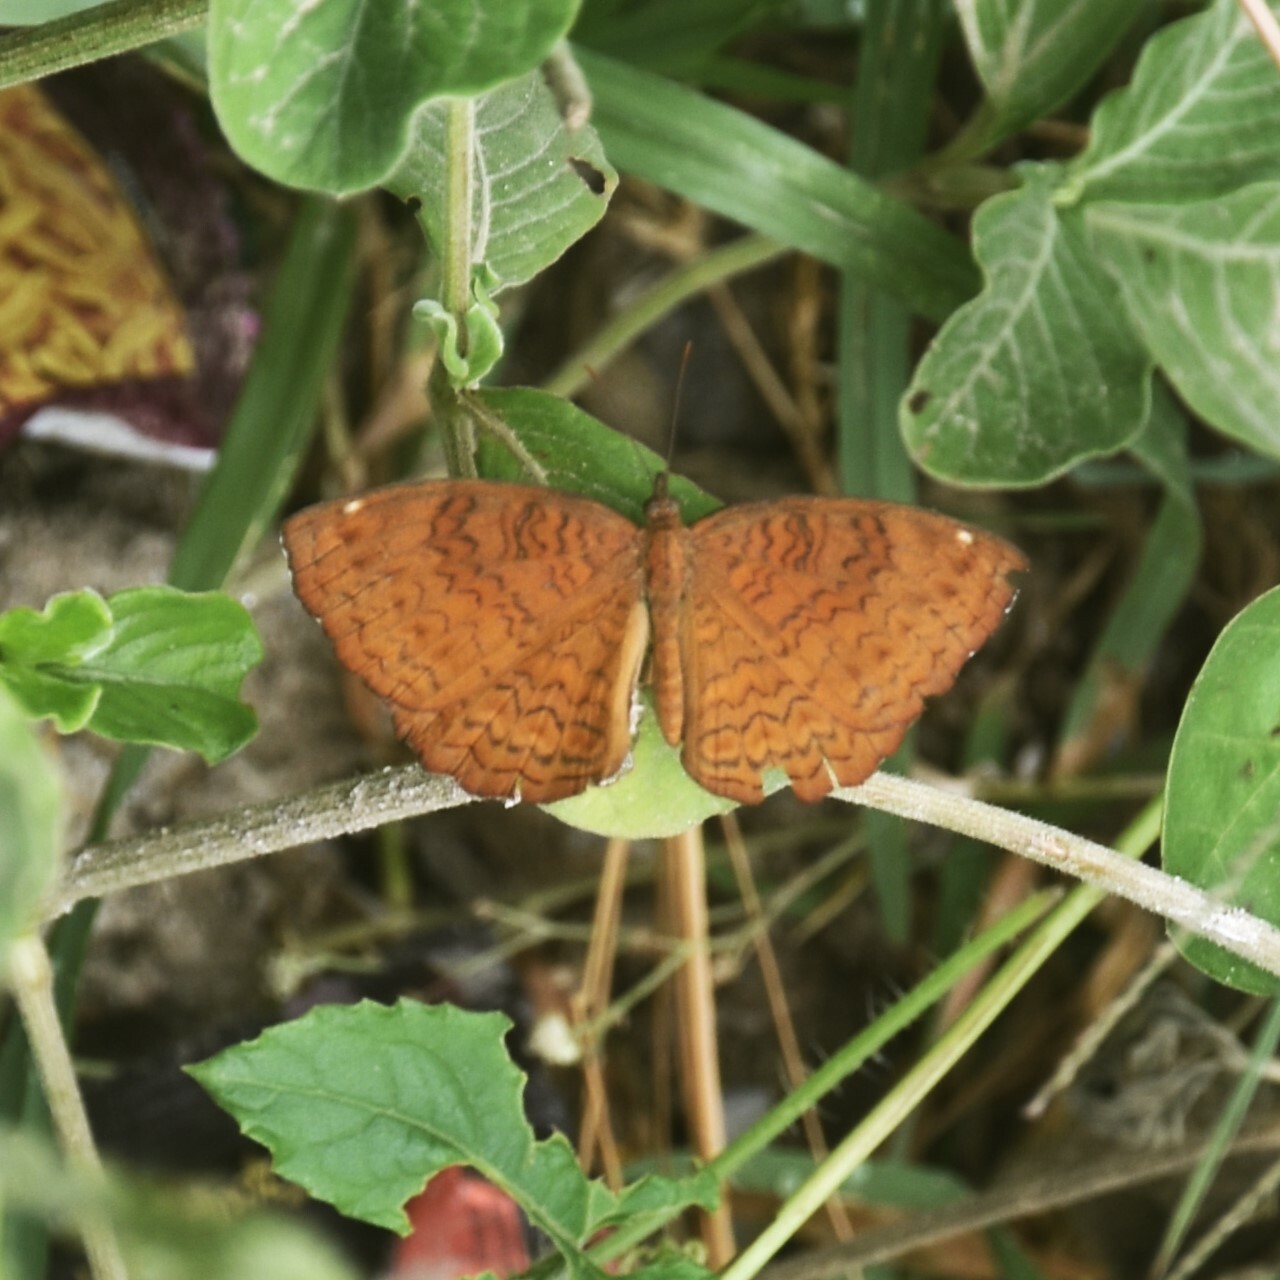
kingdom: Animalia
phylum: Arthropoda
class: Insecta
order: Lepidoptera
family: Nymphalidae
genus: Ariadne
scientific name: Ariadne merione
